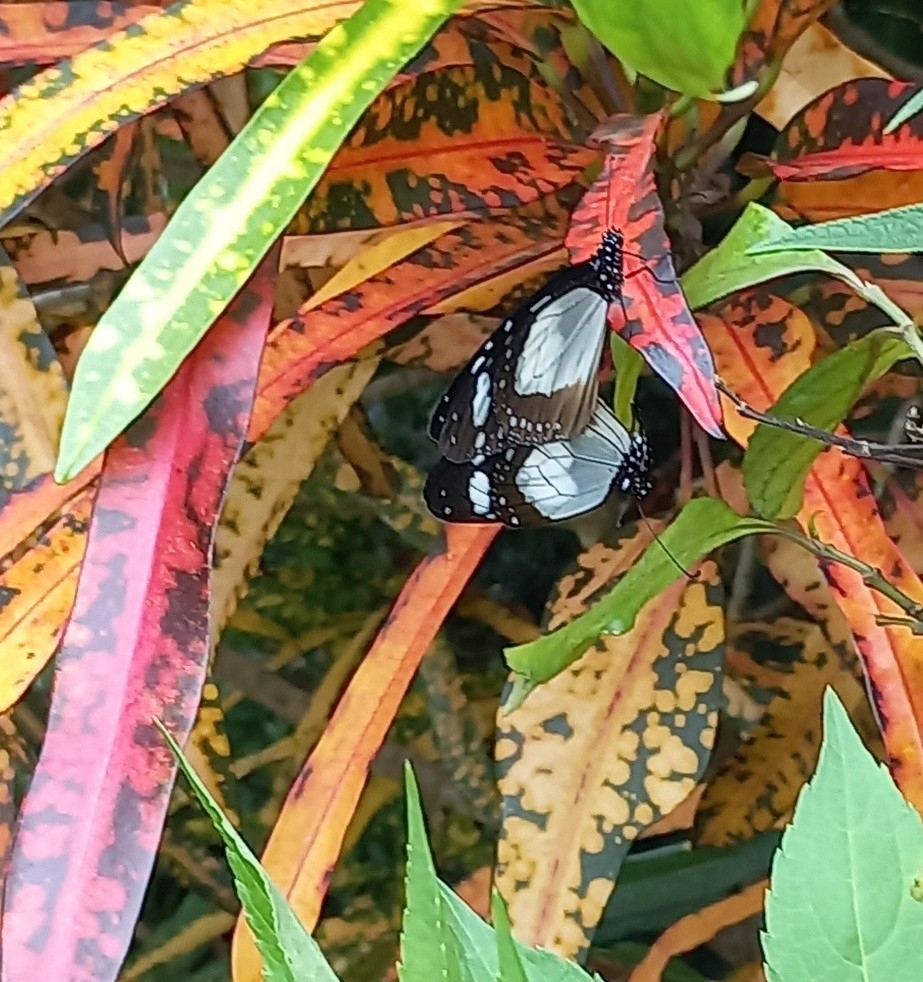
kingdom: Animalia
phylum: Arthropoda
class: Insecta
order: Lepidoptera
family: Nymphalidae
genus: Amauris
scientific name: Amauris ochlea
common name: Novice
